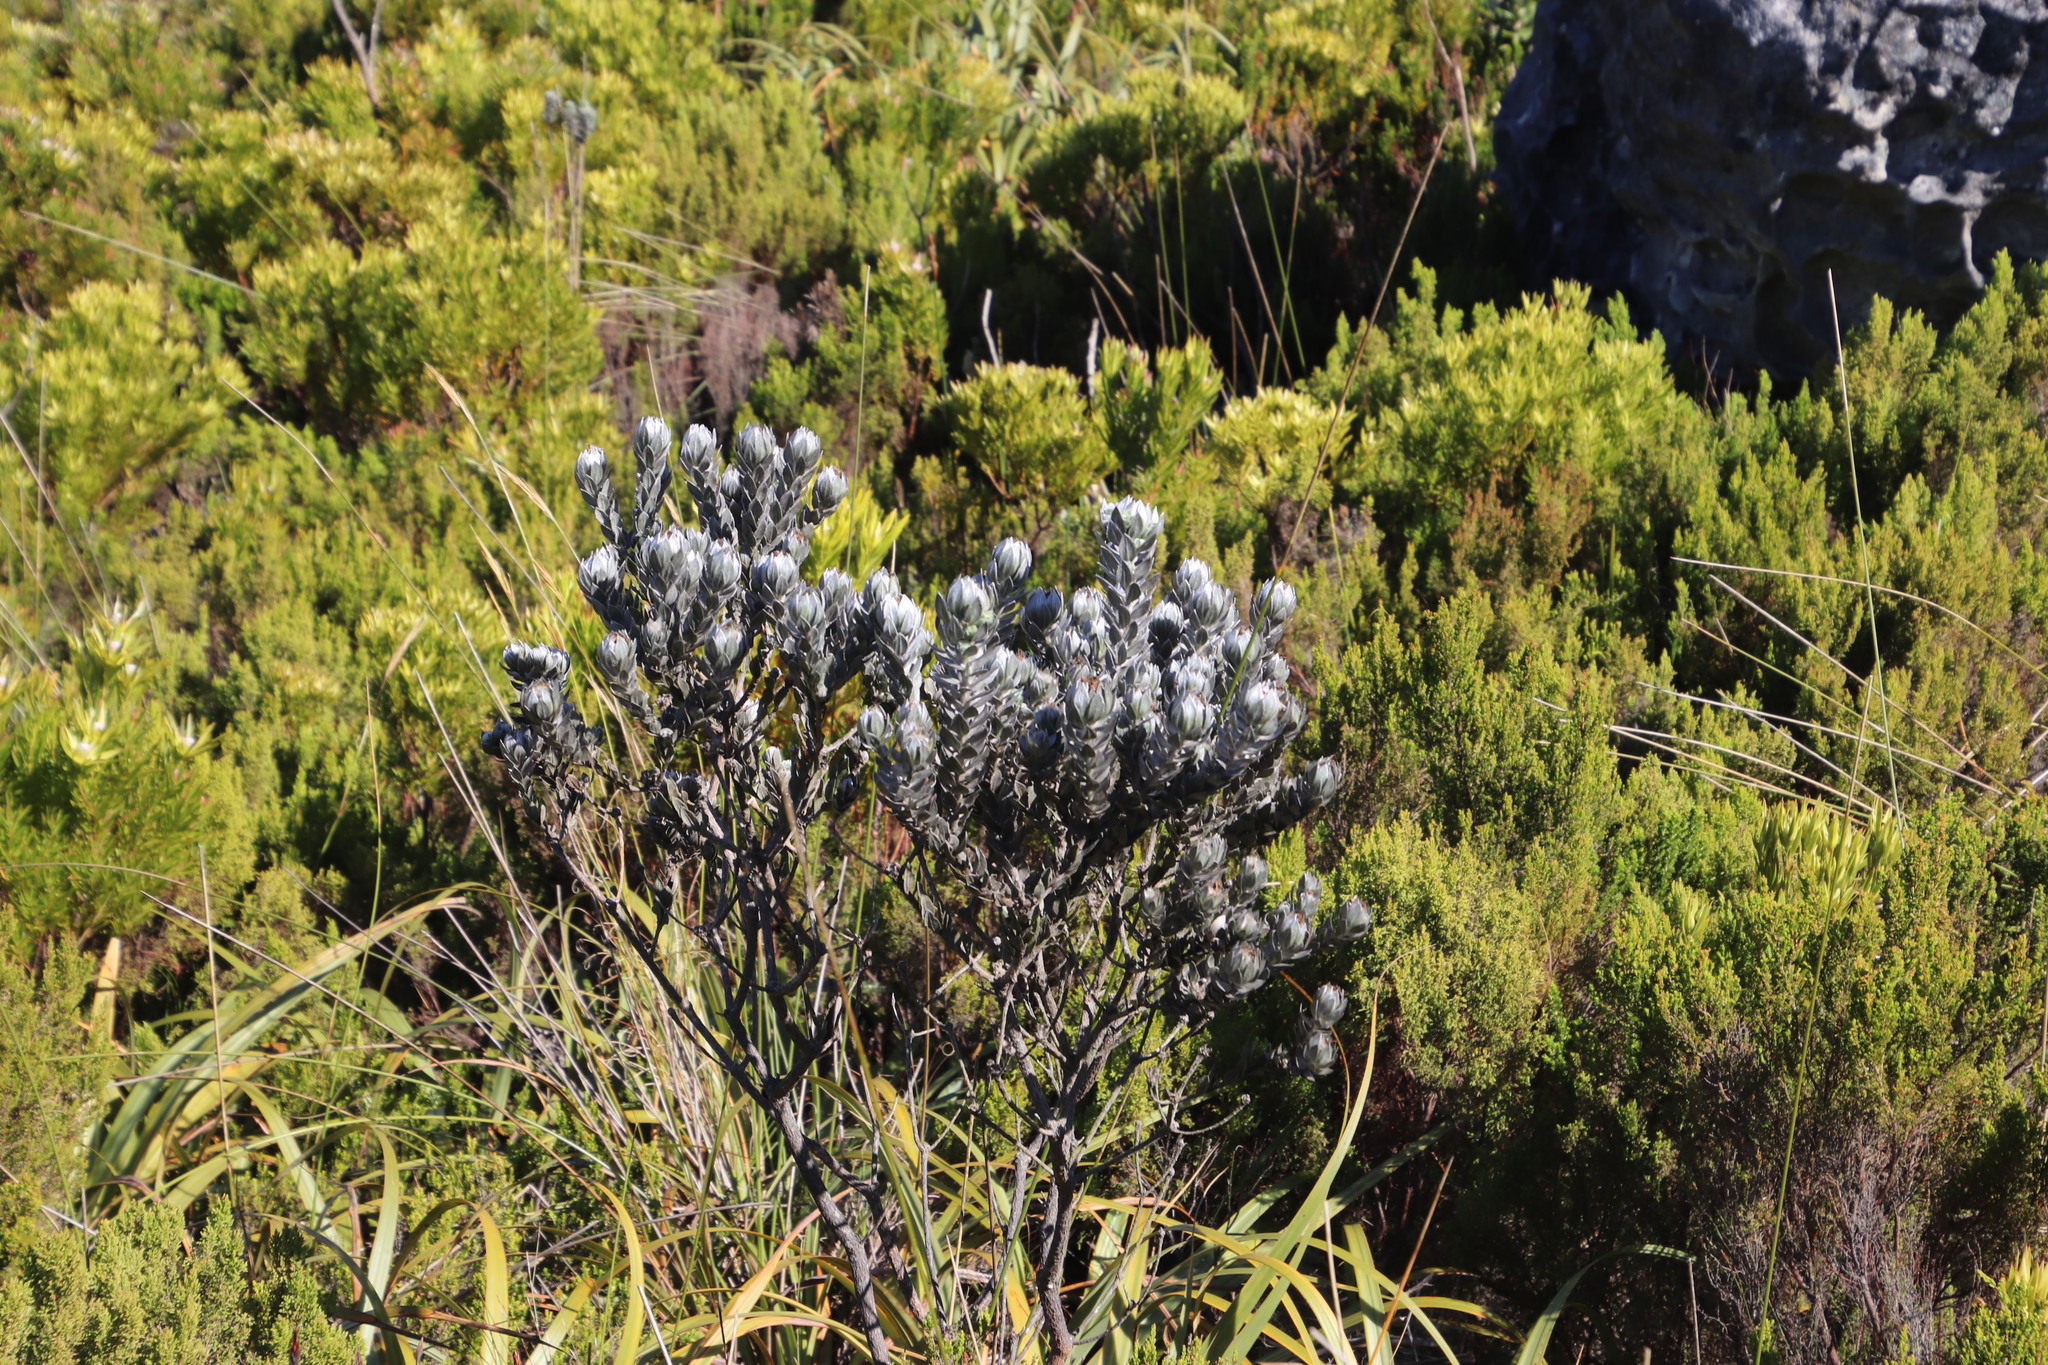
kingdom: Plantae
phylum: Tracheophyta
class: Magnoliopsida
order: Fabales
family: Fabaceae
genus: Xiphotheca
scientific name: Xiphotheca fruticosa
